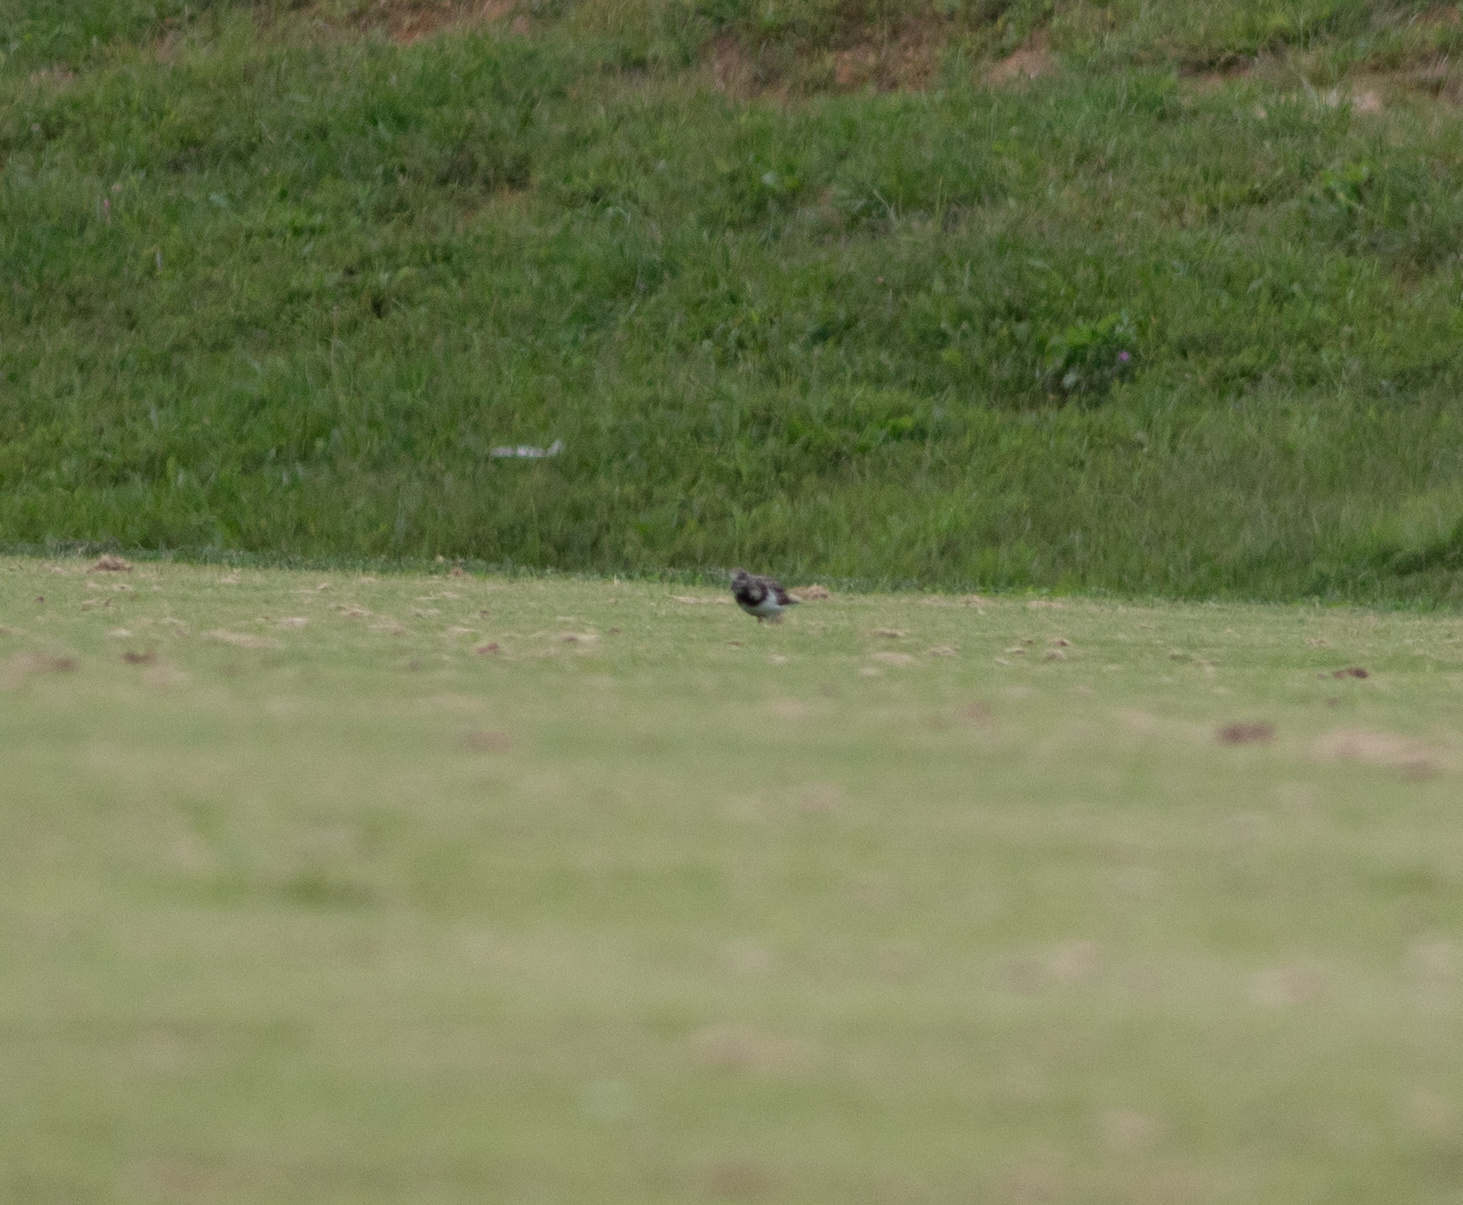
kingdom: Animalia
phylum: Chordata
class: Aves
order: Charadriiformes
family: Scolopacidae
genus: Arenaria
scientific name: Arenaria interpres
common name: Ruddy turnstone
